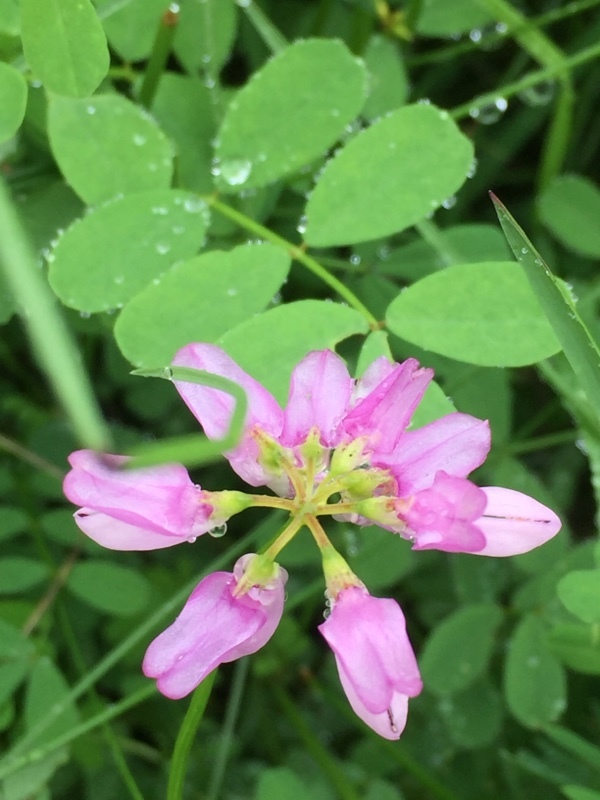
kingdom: Plantae
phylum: Tracheophyta
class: Magnoliopsida
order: Fabales
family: Fabaceae
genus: Coronilla
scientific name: Coronilla varia
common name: Crownvetch
